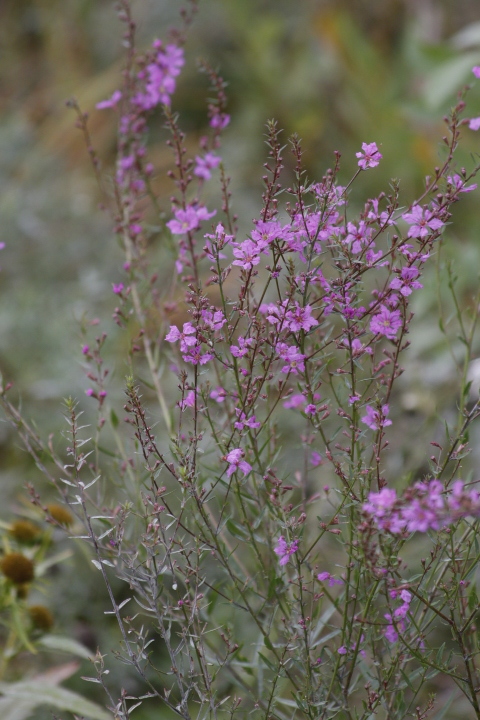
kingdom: Plantae
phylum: Tracheophyta
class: Magnoliopsida
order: Myrtales
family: Lythraceae
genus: Lythrum
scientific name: Lythrum virgatum
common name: European wand loosestrife
